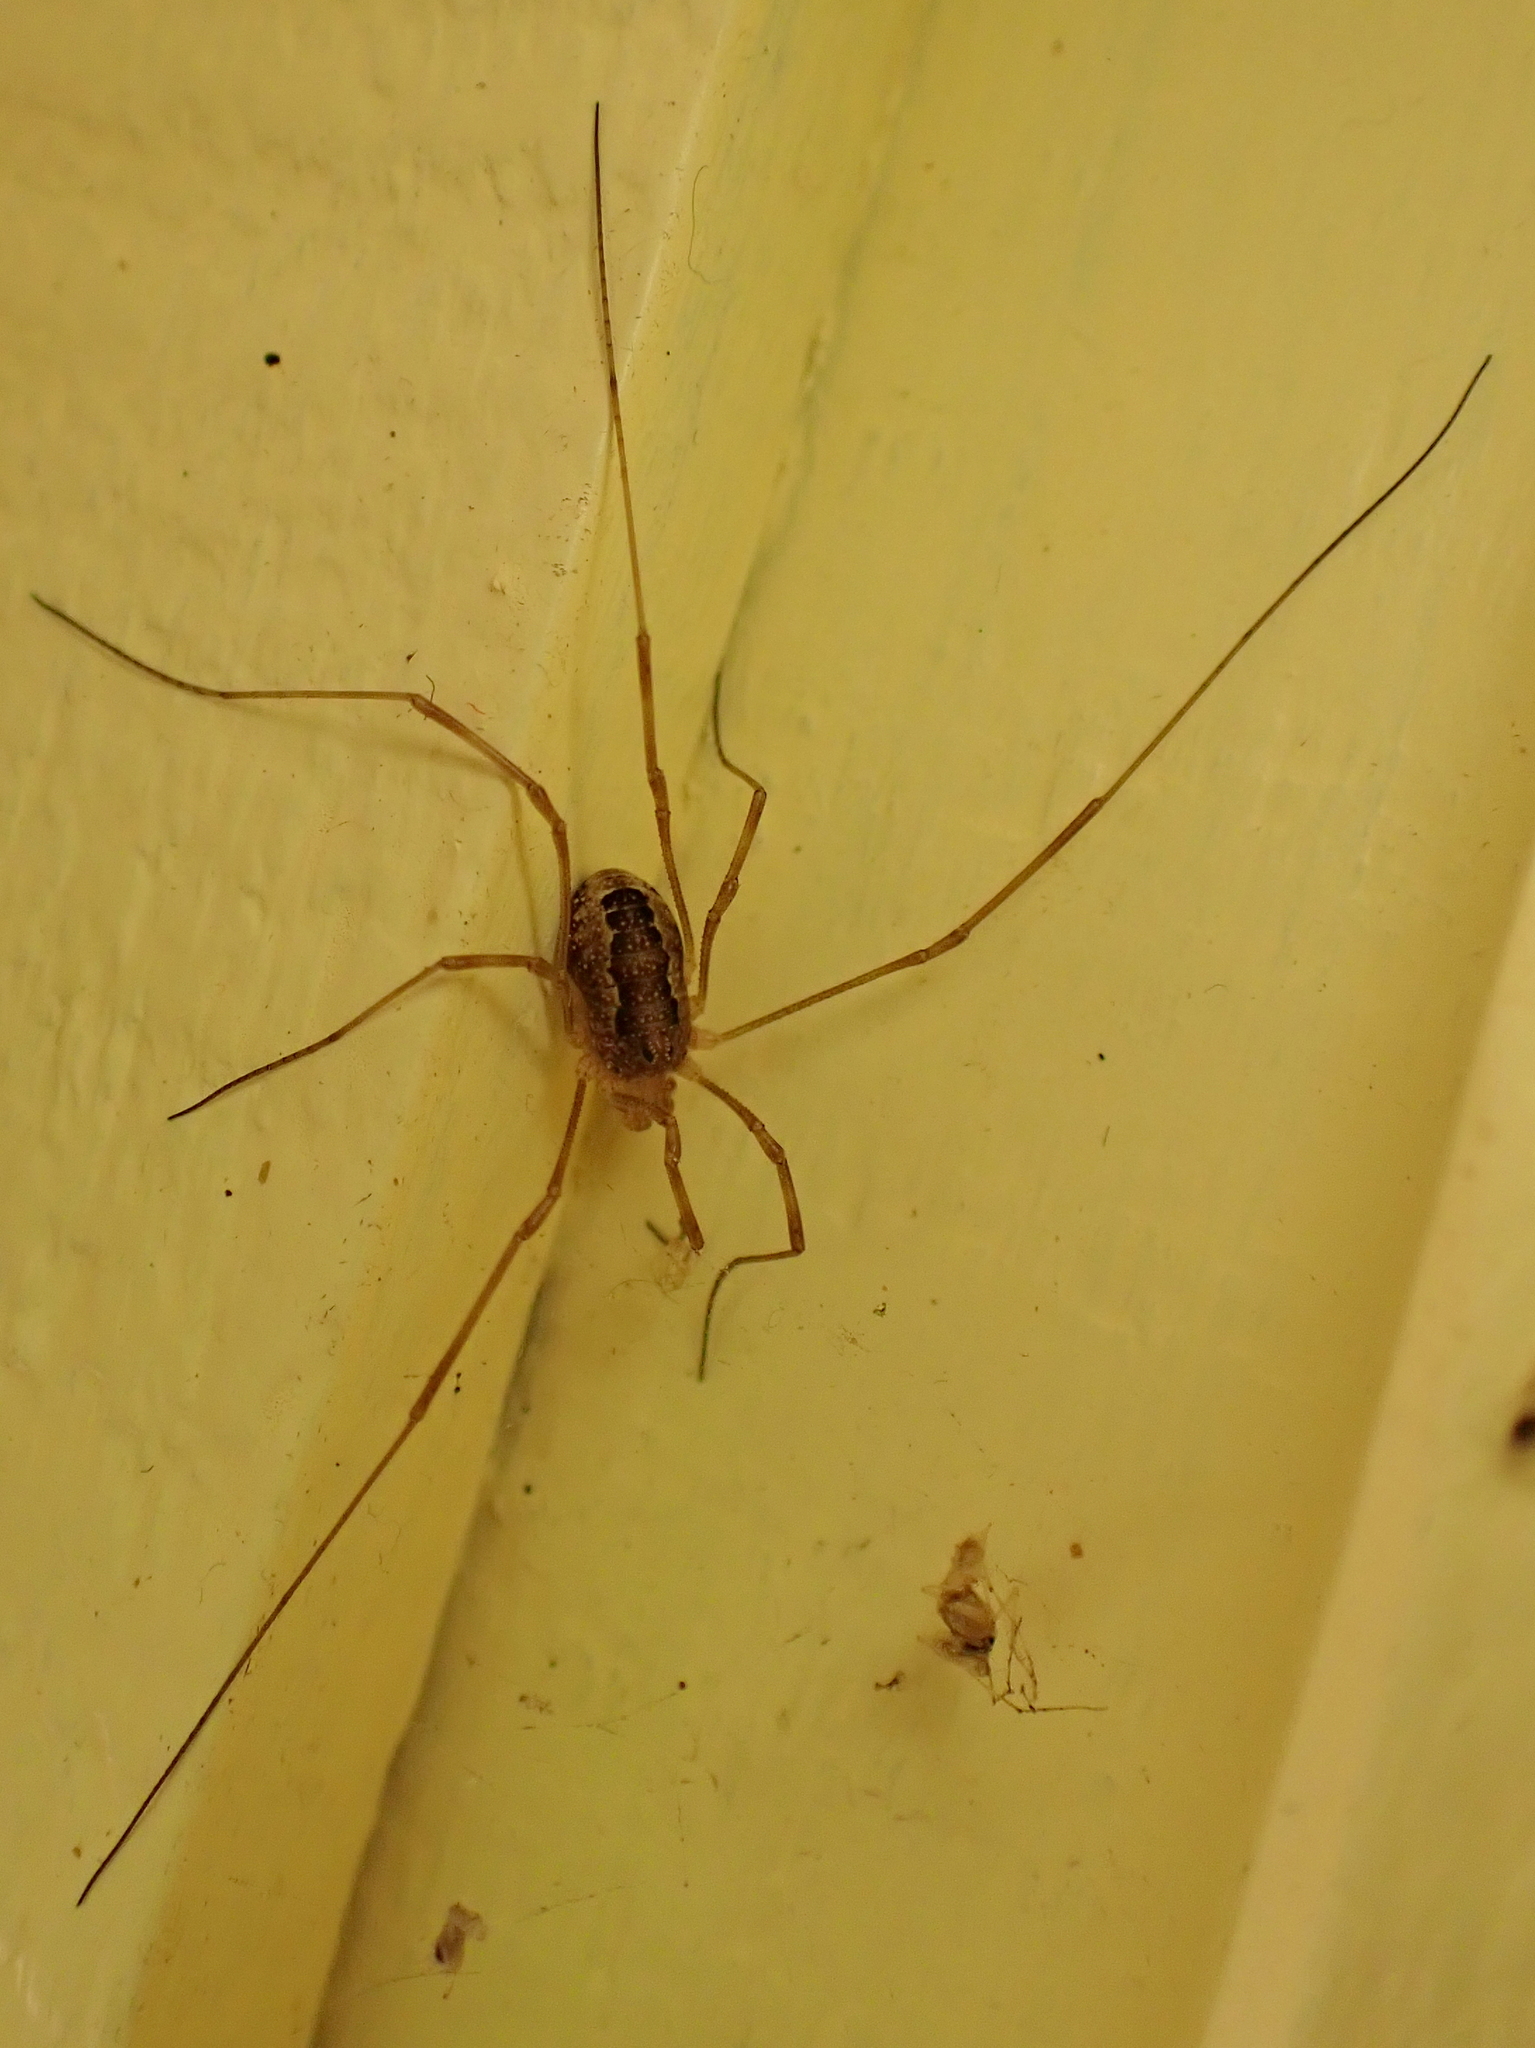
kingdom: Animalia
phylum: Arthropoda
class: Arachnida
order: Opiliones
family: Phalangiidae
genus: Rilaena
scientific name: Rilaena triangularis
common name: Spring harvestman
